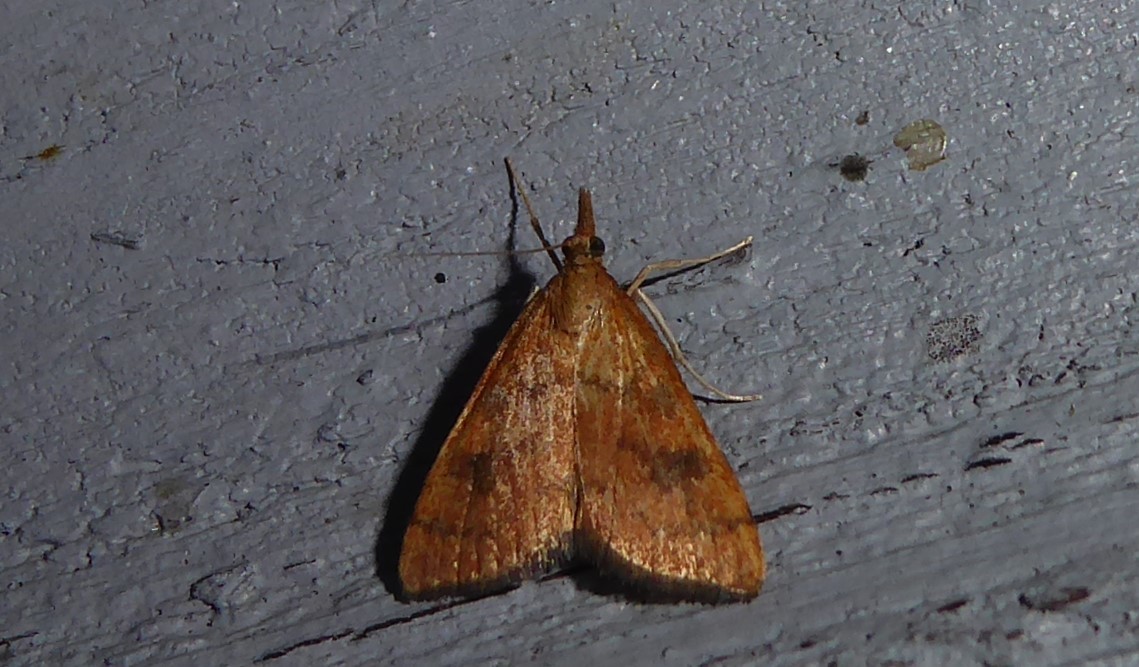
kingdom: Animalia
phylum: Arthropoda
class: Insecta
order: Lepidoptera
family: Crambidae
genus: Udea
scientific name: Udea Mnesictena flavidalis
